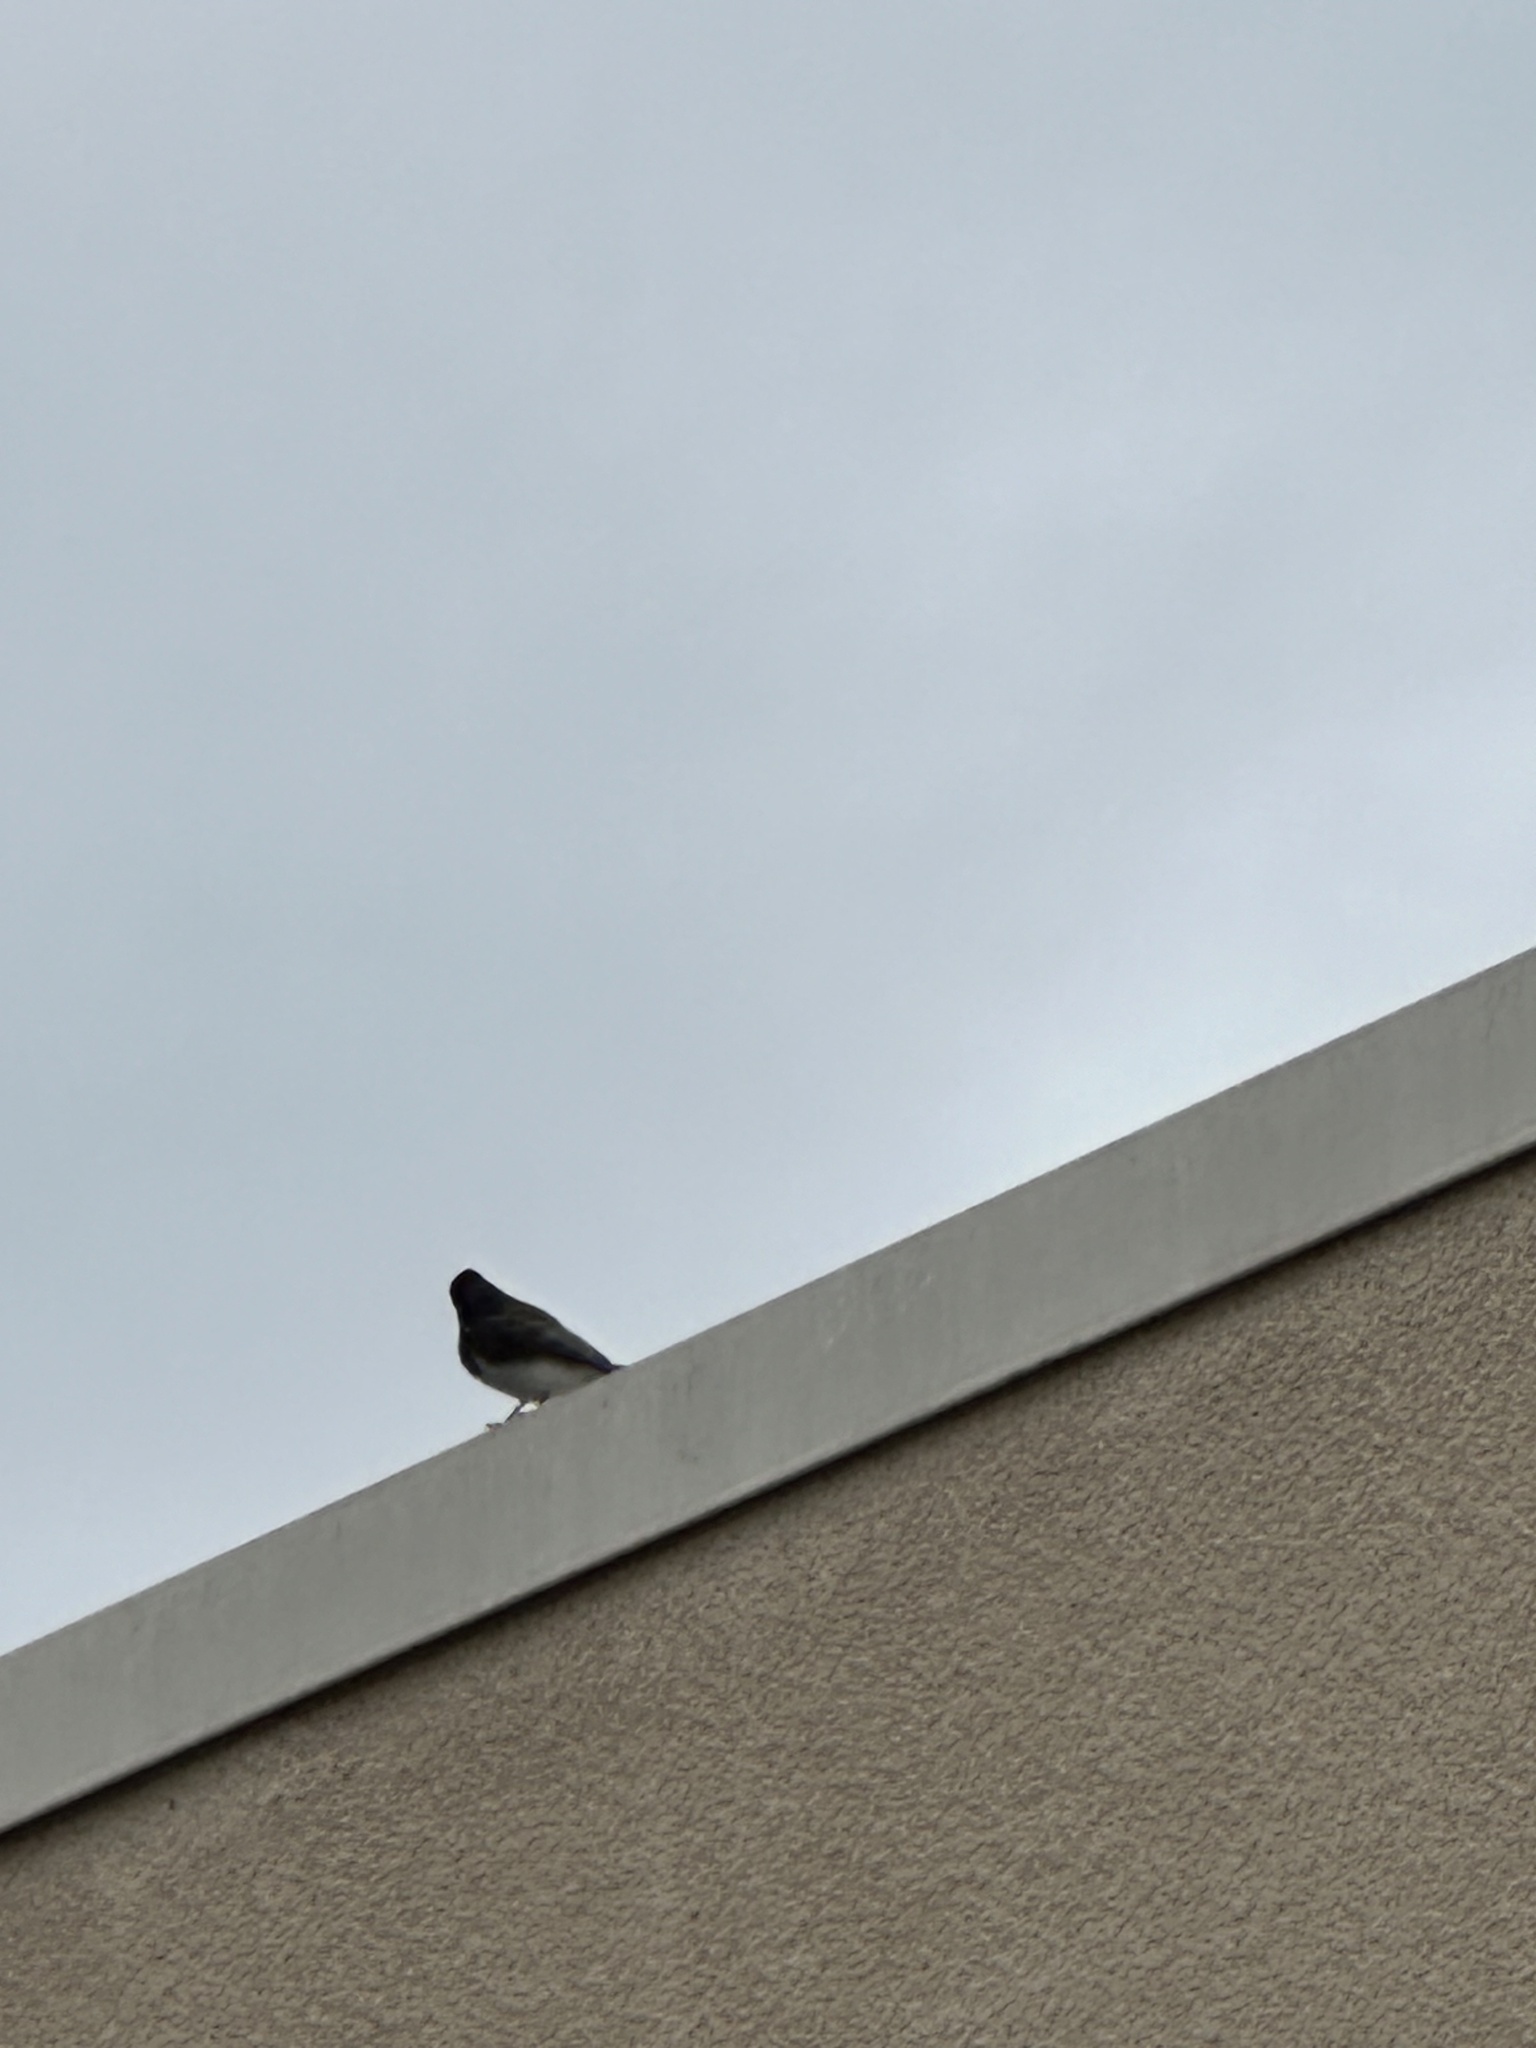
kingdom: Animalia
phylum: Chordata
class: Aves
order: Passeriformes
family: Tyrannidae
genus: Sayornis
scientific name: Sayornis nigricans
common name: Black phoebe
